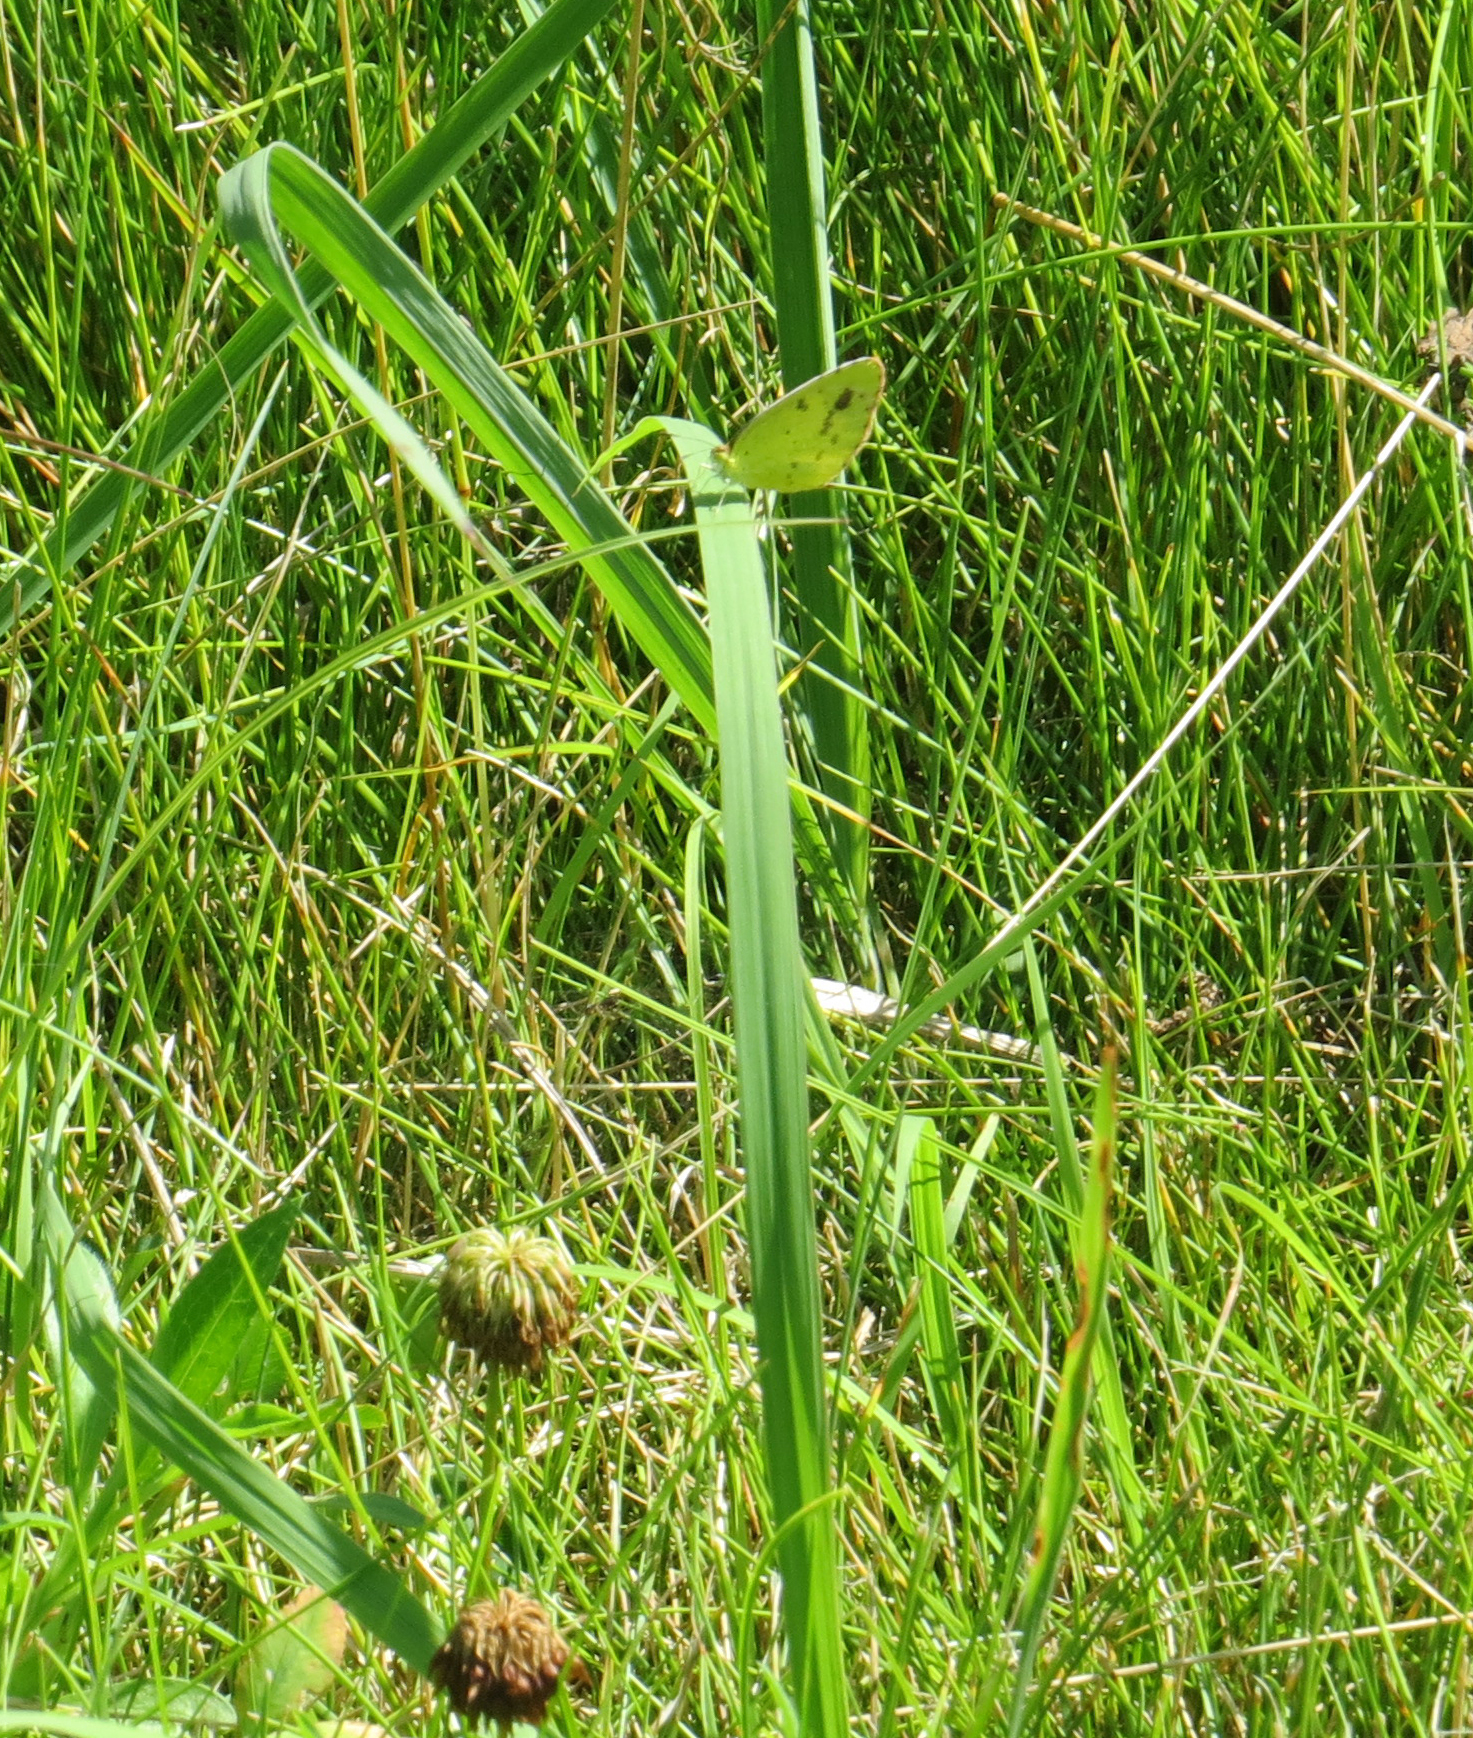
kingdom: Animalia
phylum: Arthropoda
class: Insecta
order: Lepidoptera
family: Pieridae
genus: Pyrisitia
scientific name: Pyrisitia lisa
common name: Little yellow
